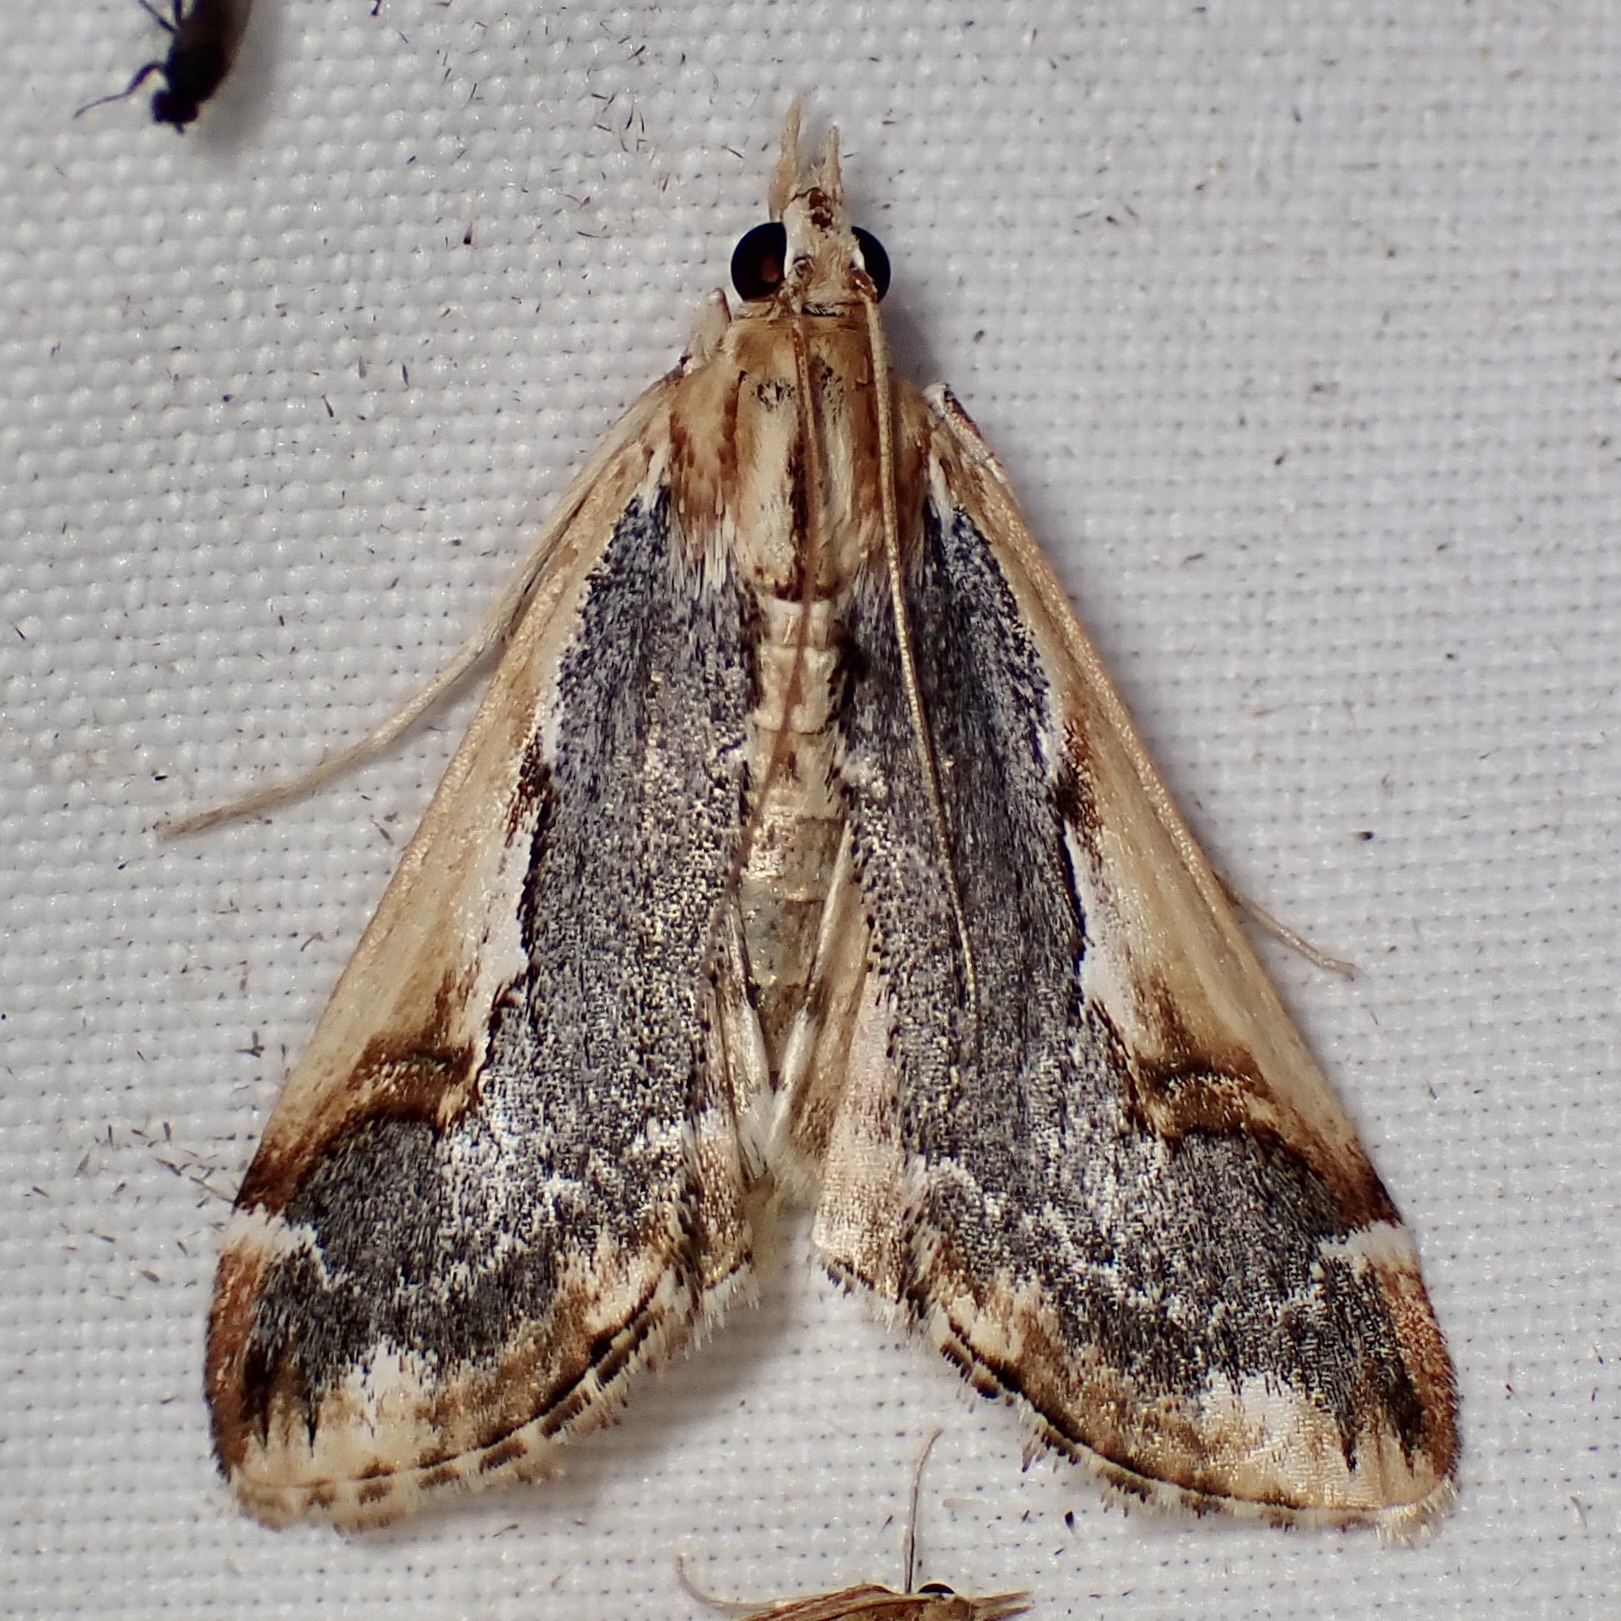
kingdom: Animalia
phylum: Arthropoda
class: Insecta
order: Lepidoptera
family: Crambidae
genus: Loxostege
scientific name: Loxostege albiceralis
